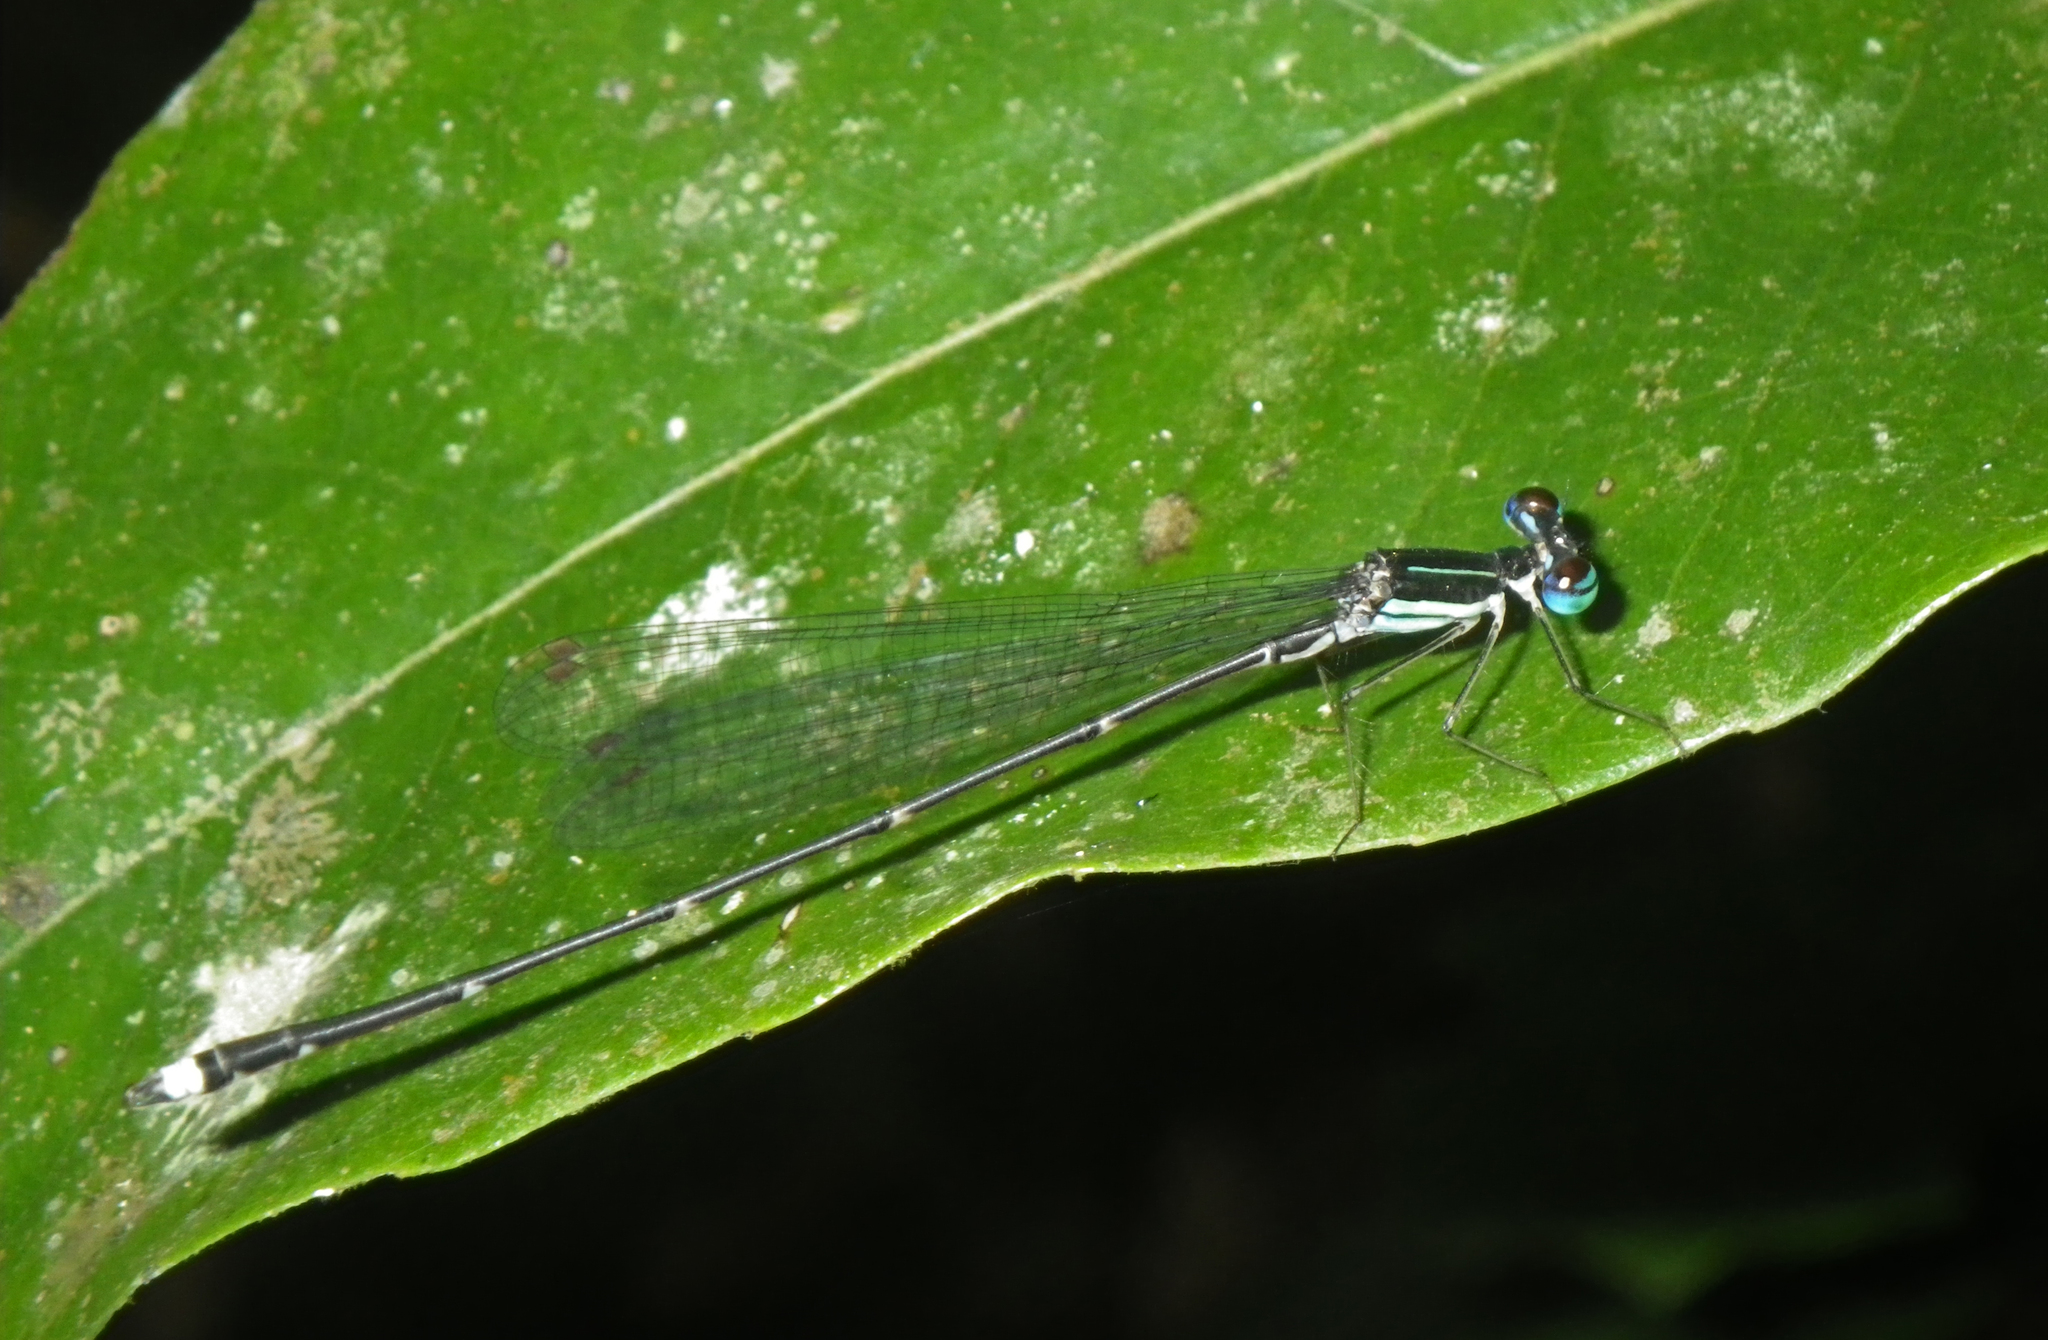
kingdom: Animalia
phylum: Arthropoda
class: Insecta
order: Odonata
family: Platycnemididae
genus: Coeliccia
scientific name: Coeliccia kazukoae
